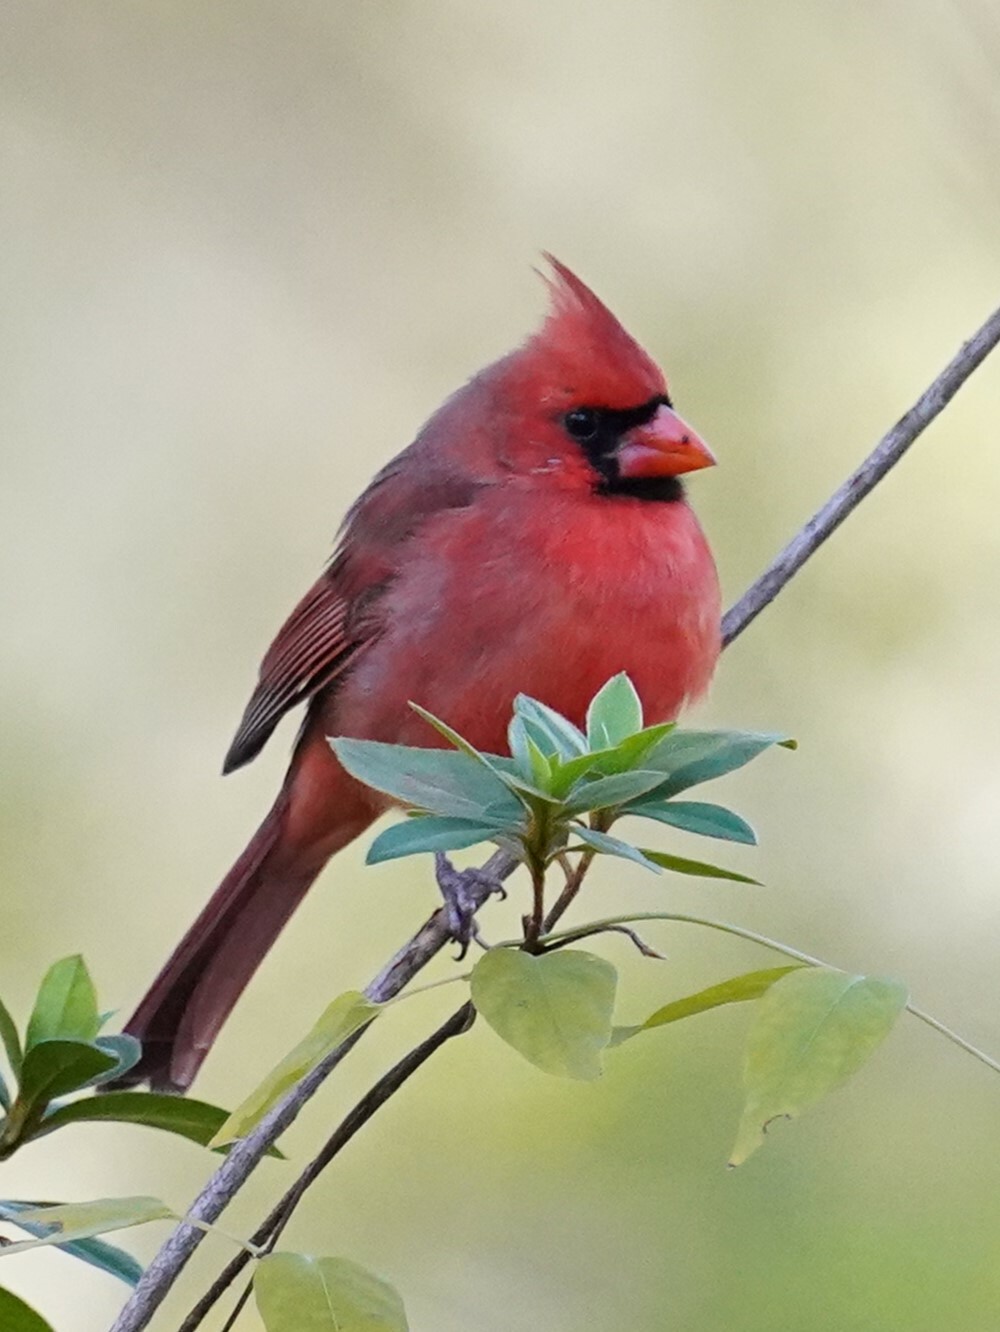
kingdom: Animalia
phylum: Chordata
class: Aves
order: Passeriformes
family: Cardinalidae
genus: Cardinalis
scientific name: Cardinalis cardinalis
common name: Northern cardinal
